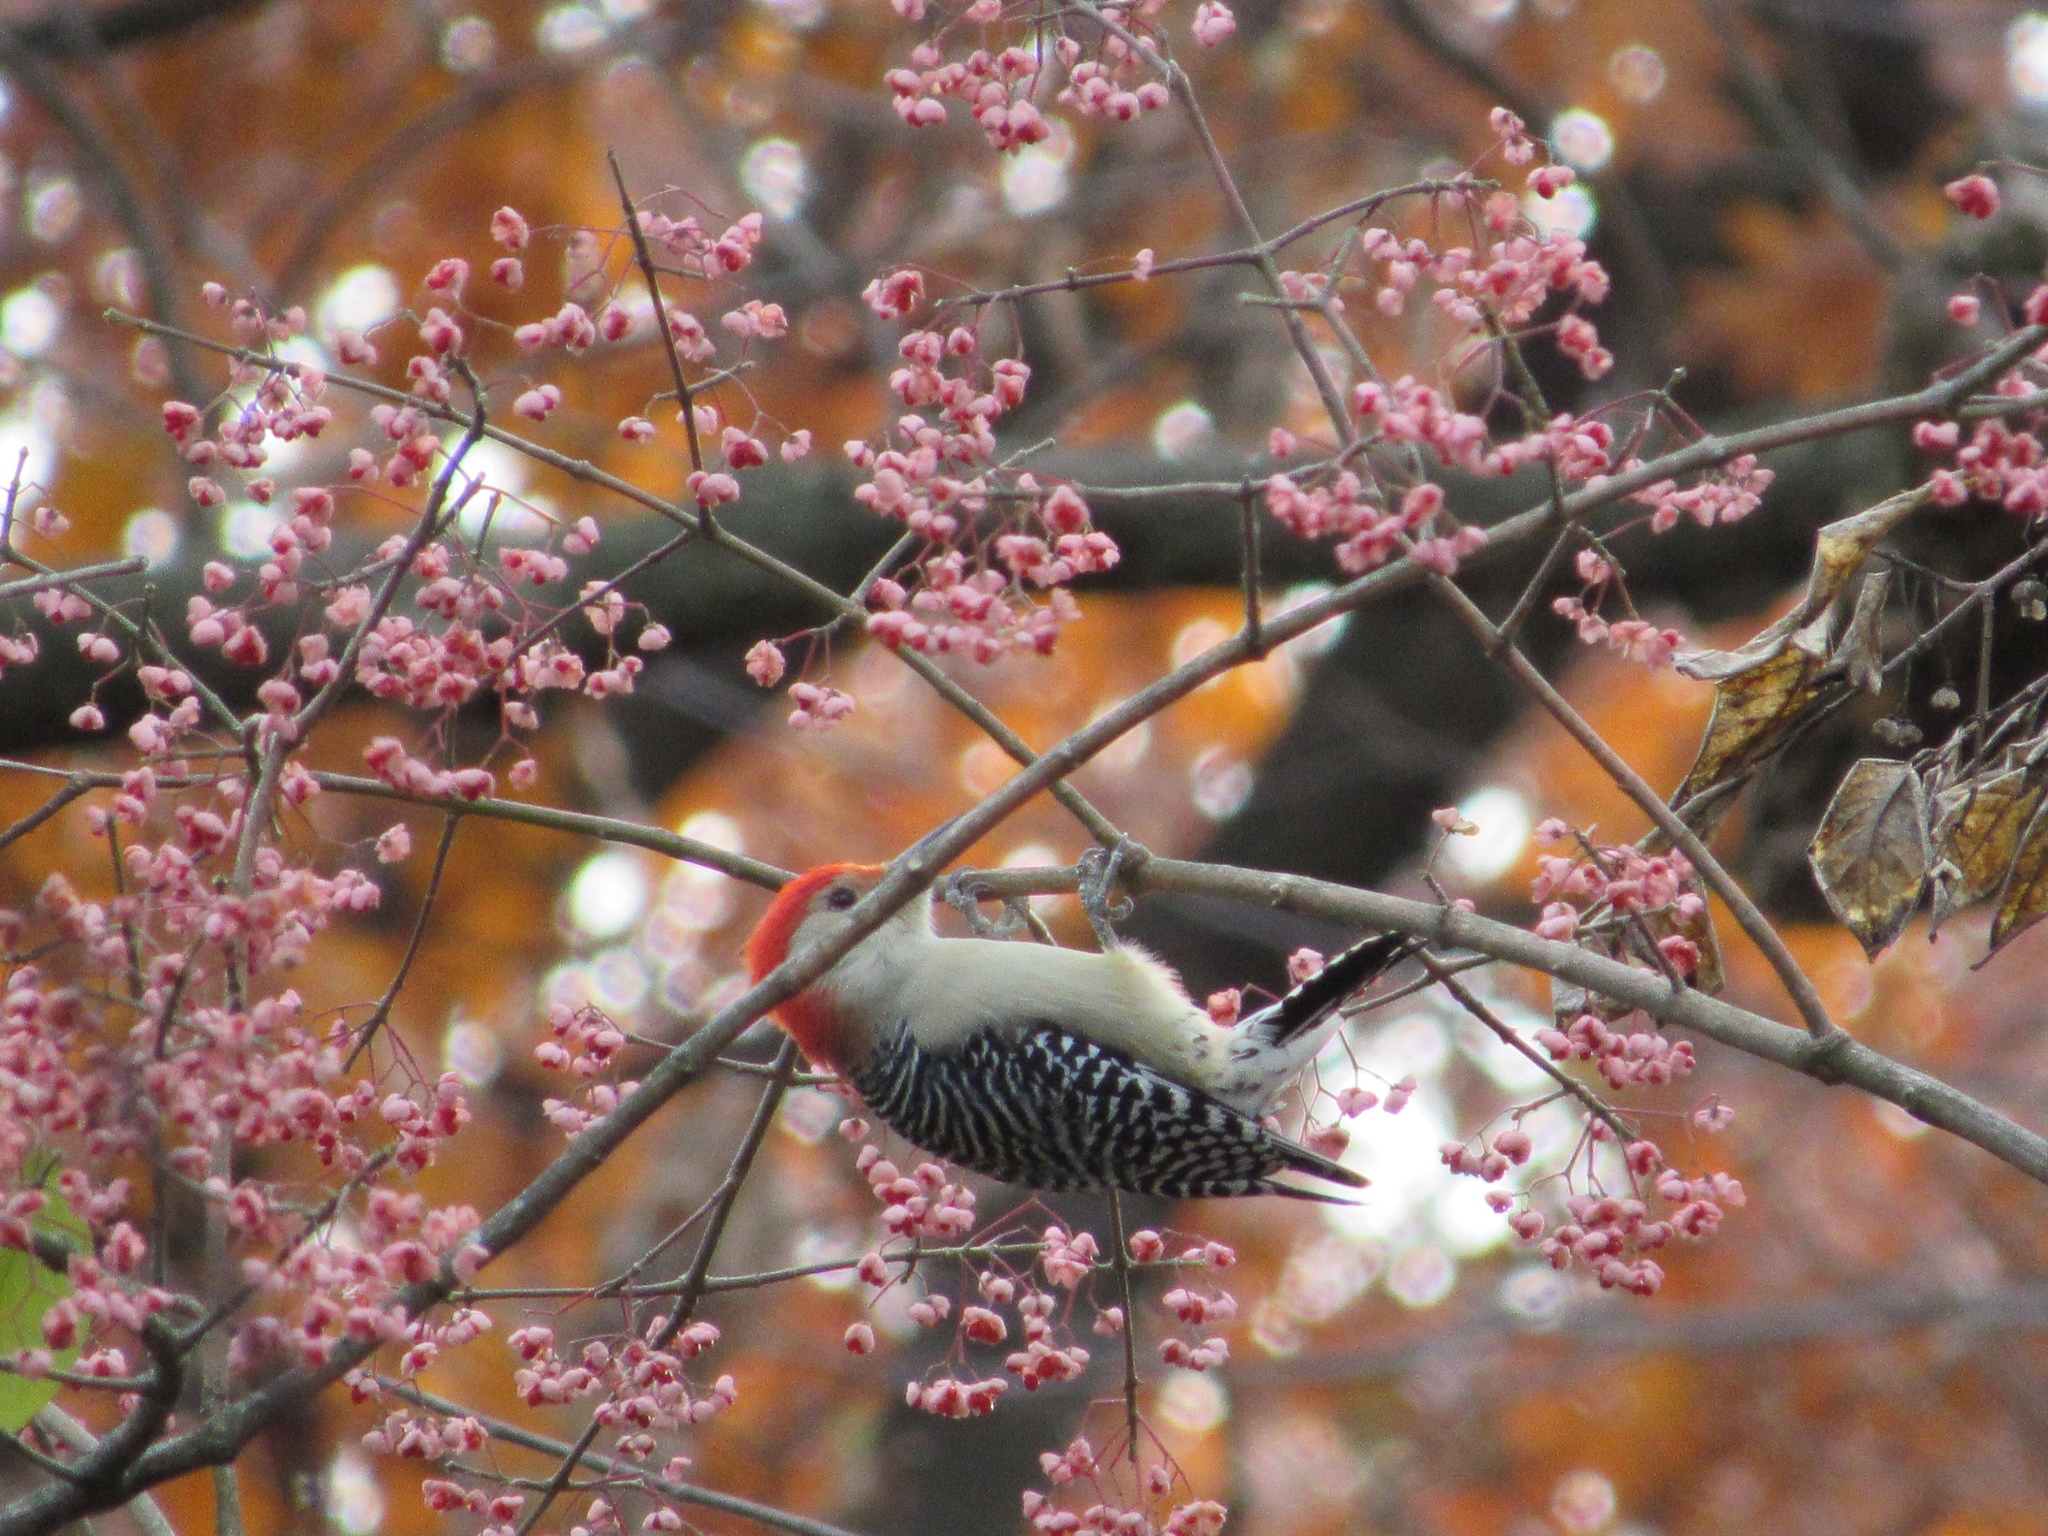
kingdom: Animalia
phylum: Chordata
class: Aves
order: Piciformes
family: Picidae
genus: Melanerpes
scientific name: Melanerpes carolinus
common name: Red-bellied woodpecker
